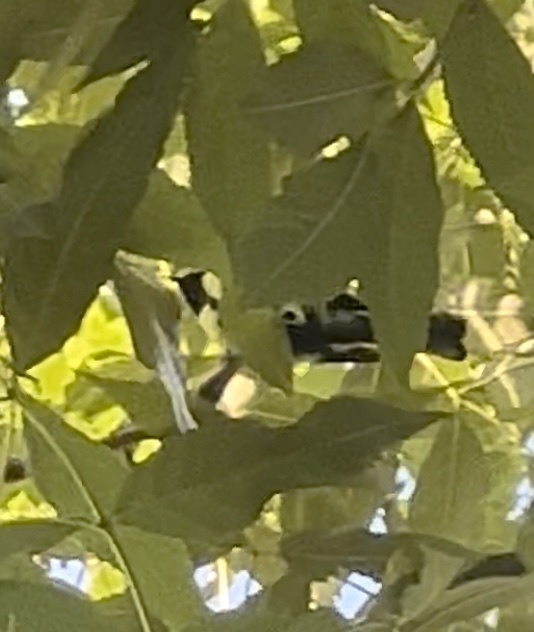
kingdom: Animalia
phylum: Chordata
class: Aves
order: Passeriformes
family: Paridae
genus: Parus
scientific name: Parus major
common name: Great tit
